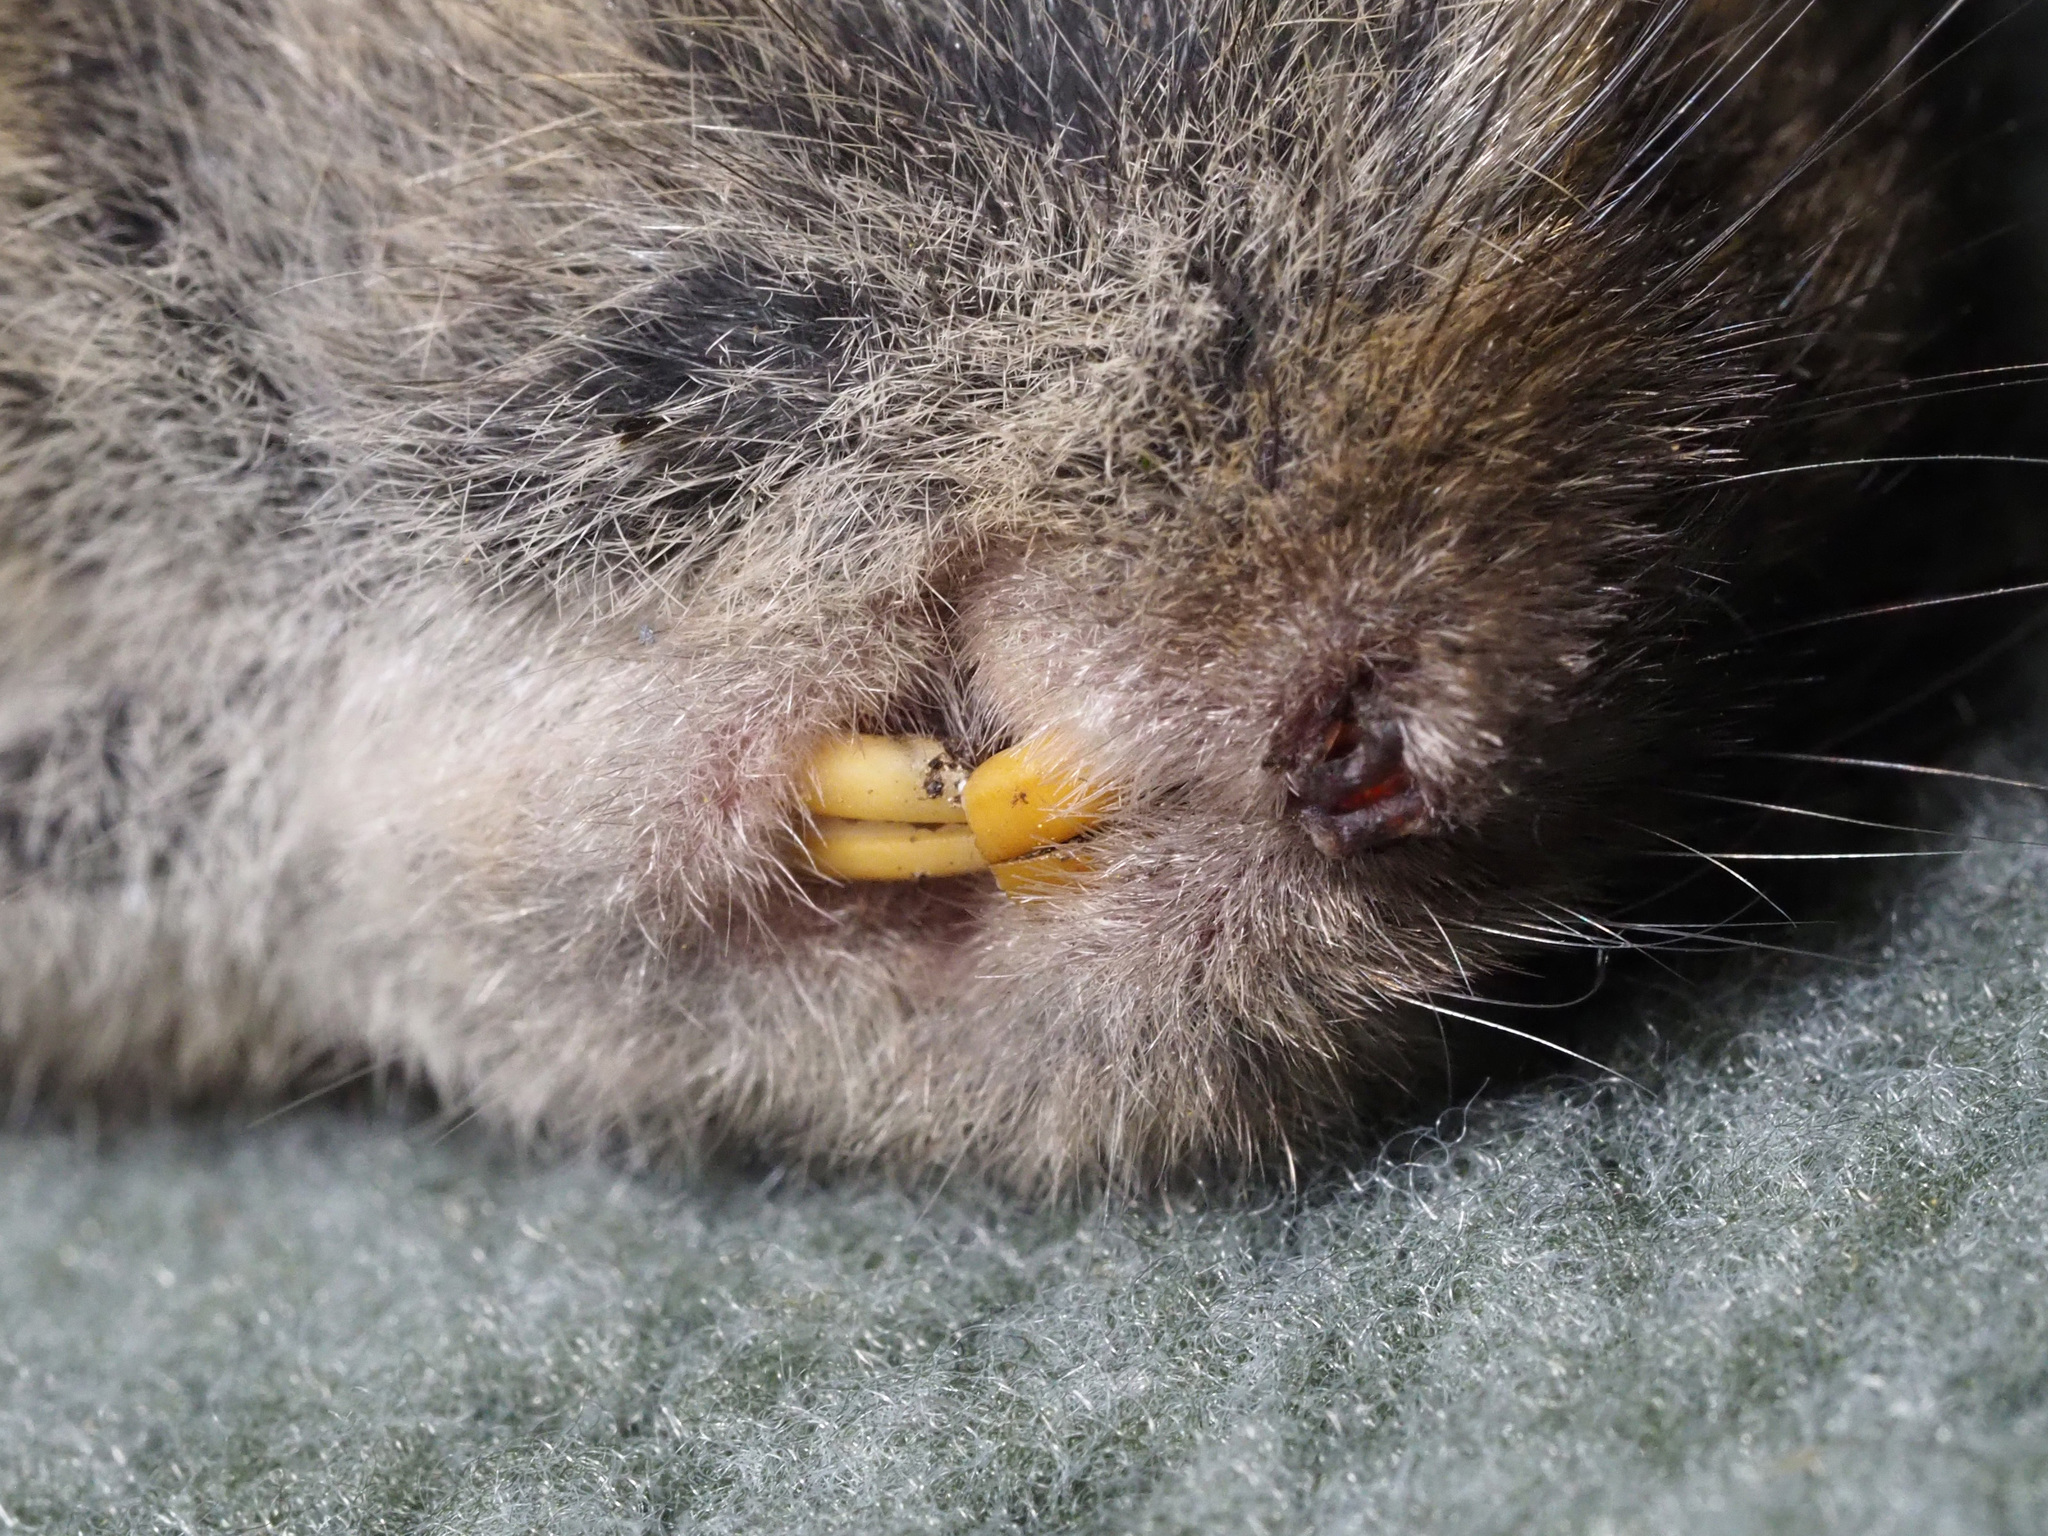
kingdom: Animalia
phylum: Chordata
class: Mammalia
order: Rodentia
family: Cricetidae
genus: Microtus
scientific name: Microtus pennsylvanicus
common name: Meadow vole
